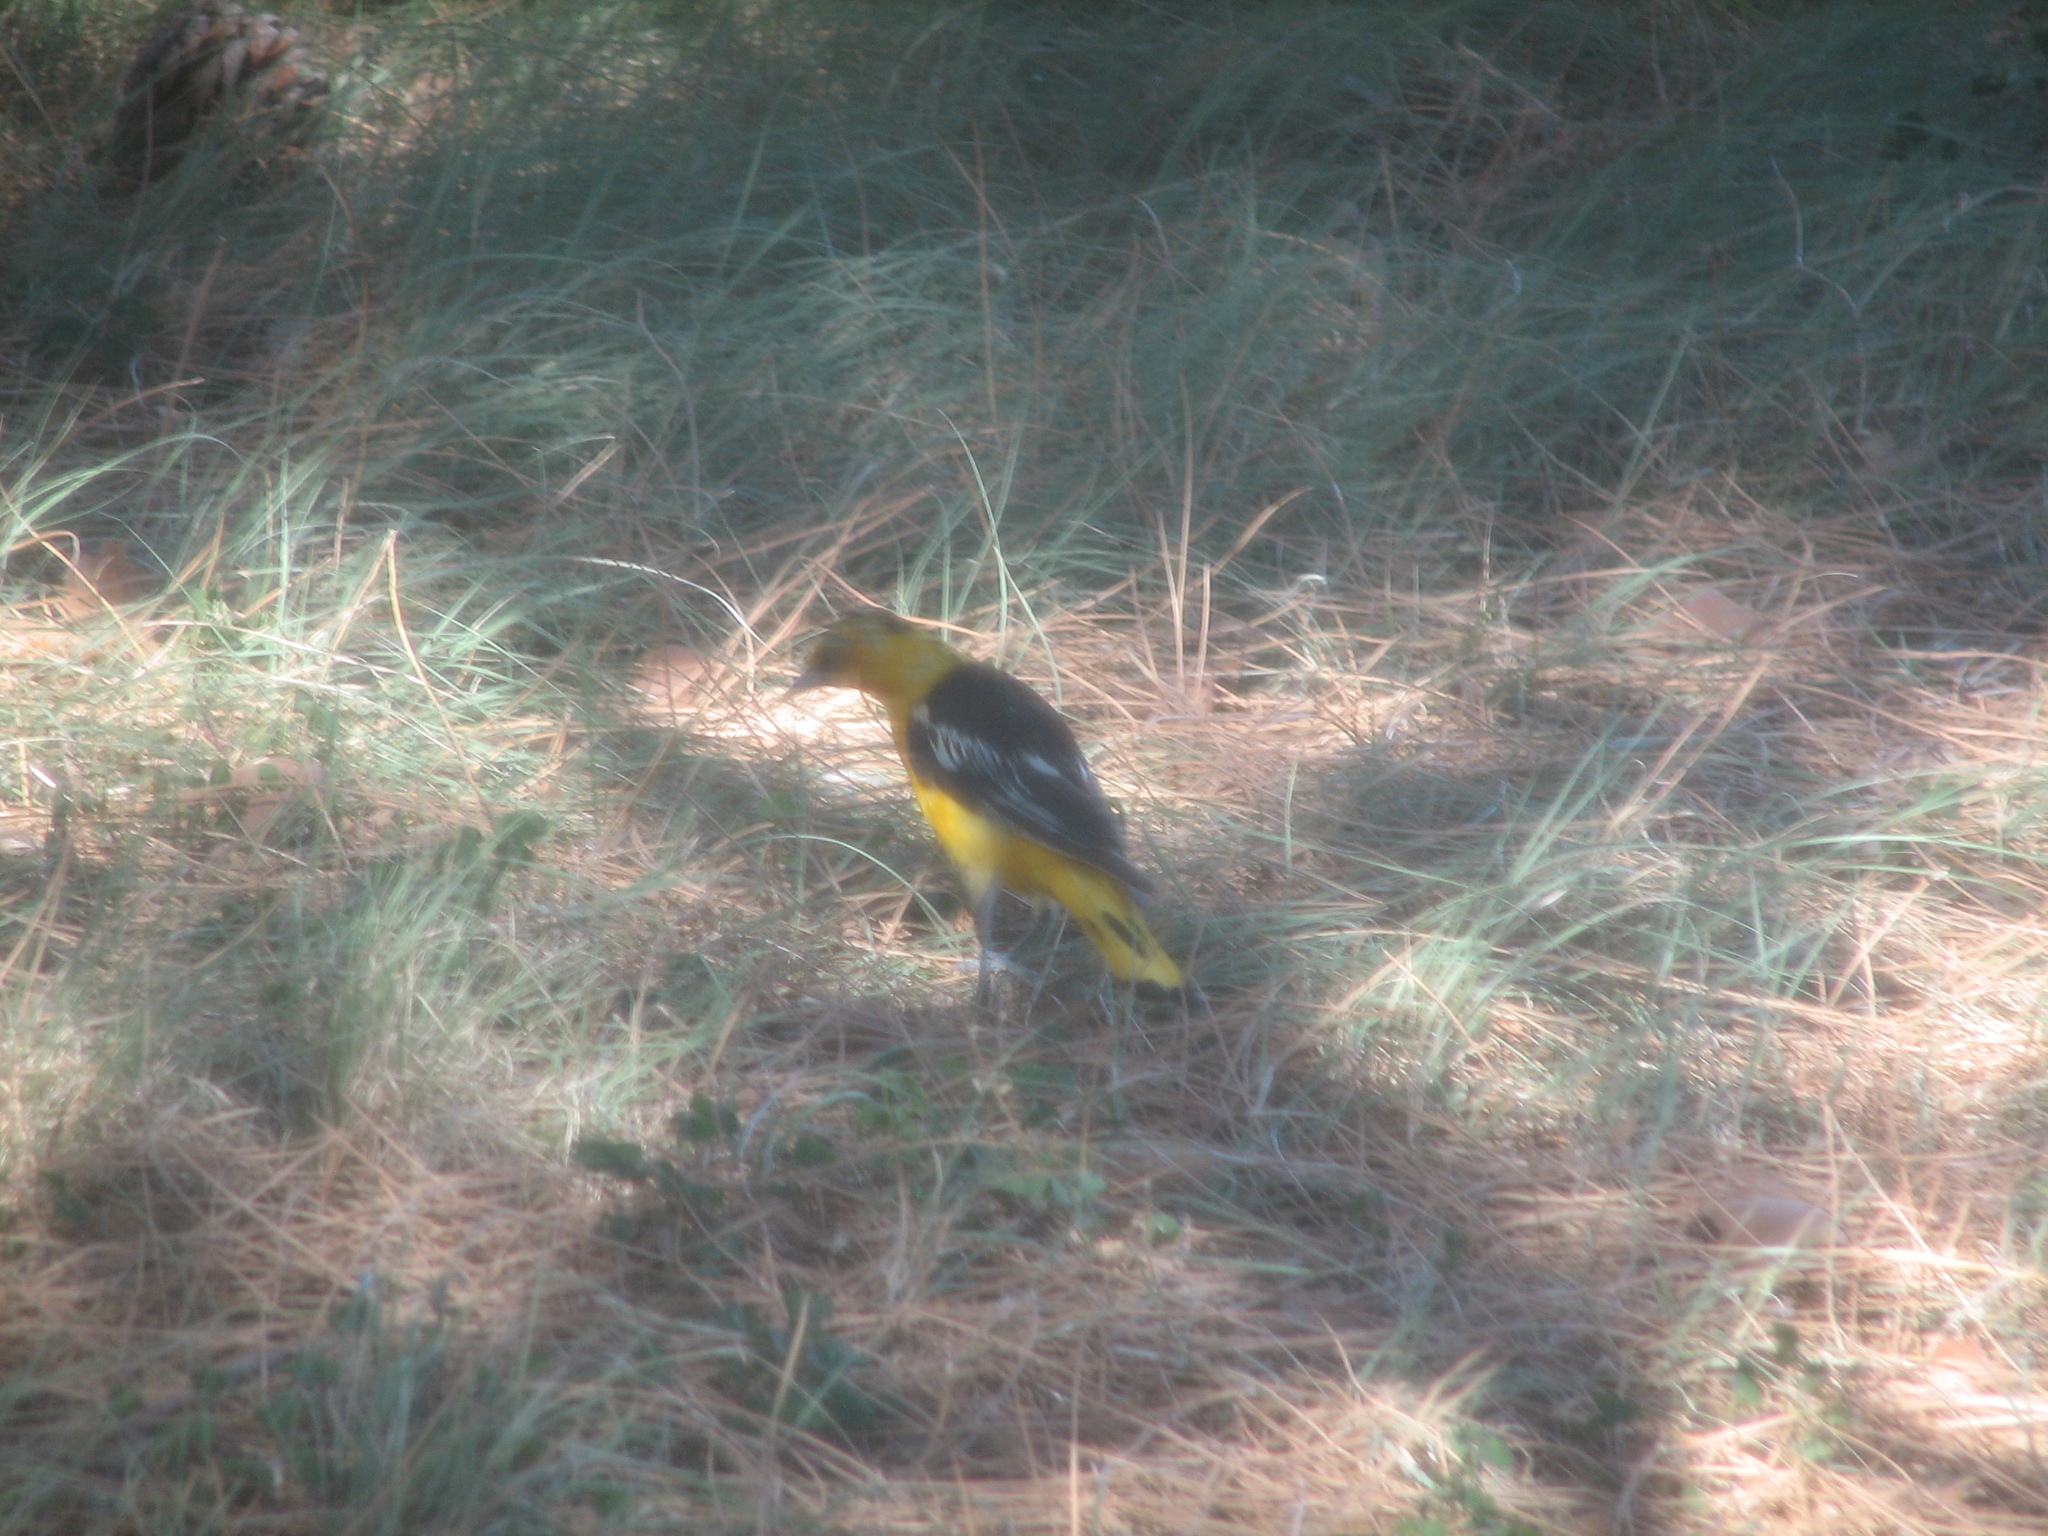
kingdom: Animalia
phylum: Chordata
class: Aves
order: Passeriformes
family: Icteridae
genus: Icterus
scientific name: Icterus bullockii
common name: Bullock's oriole
